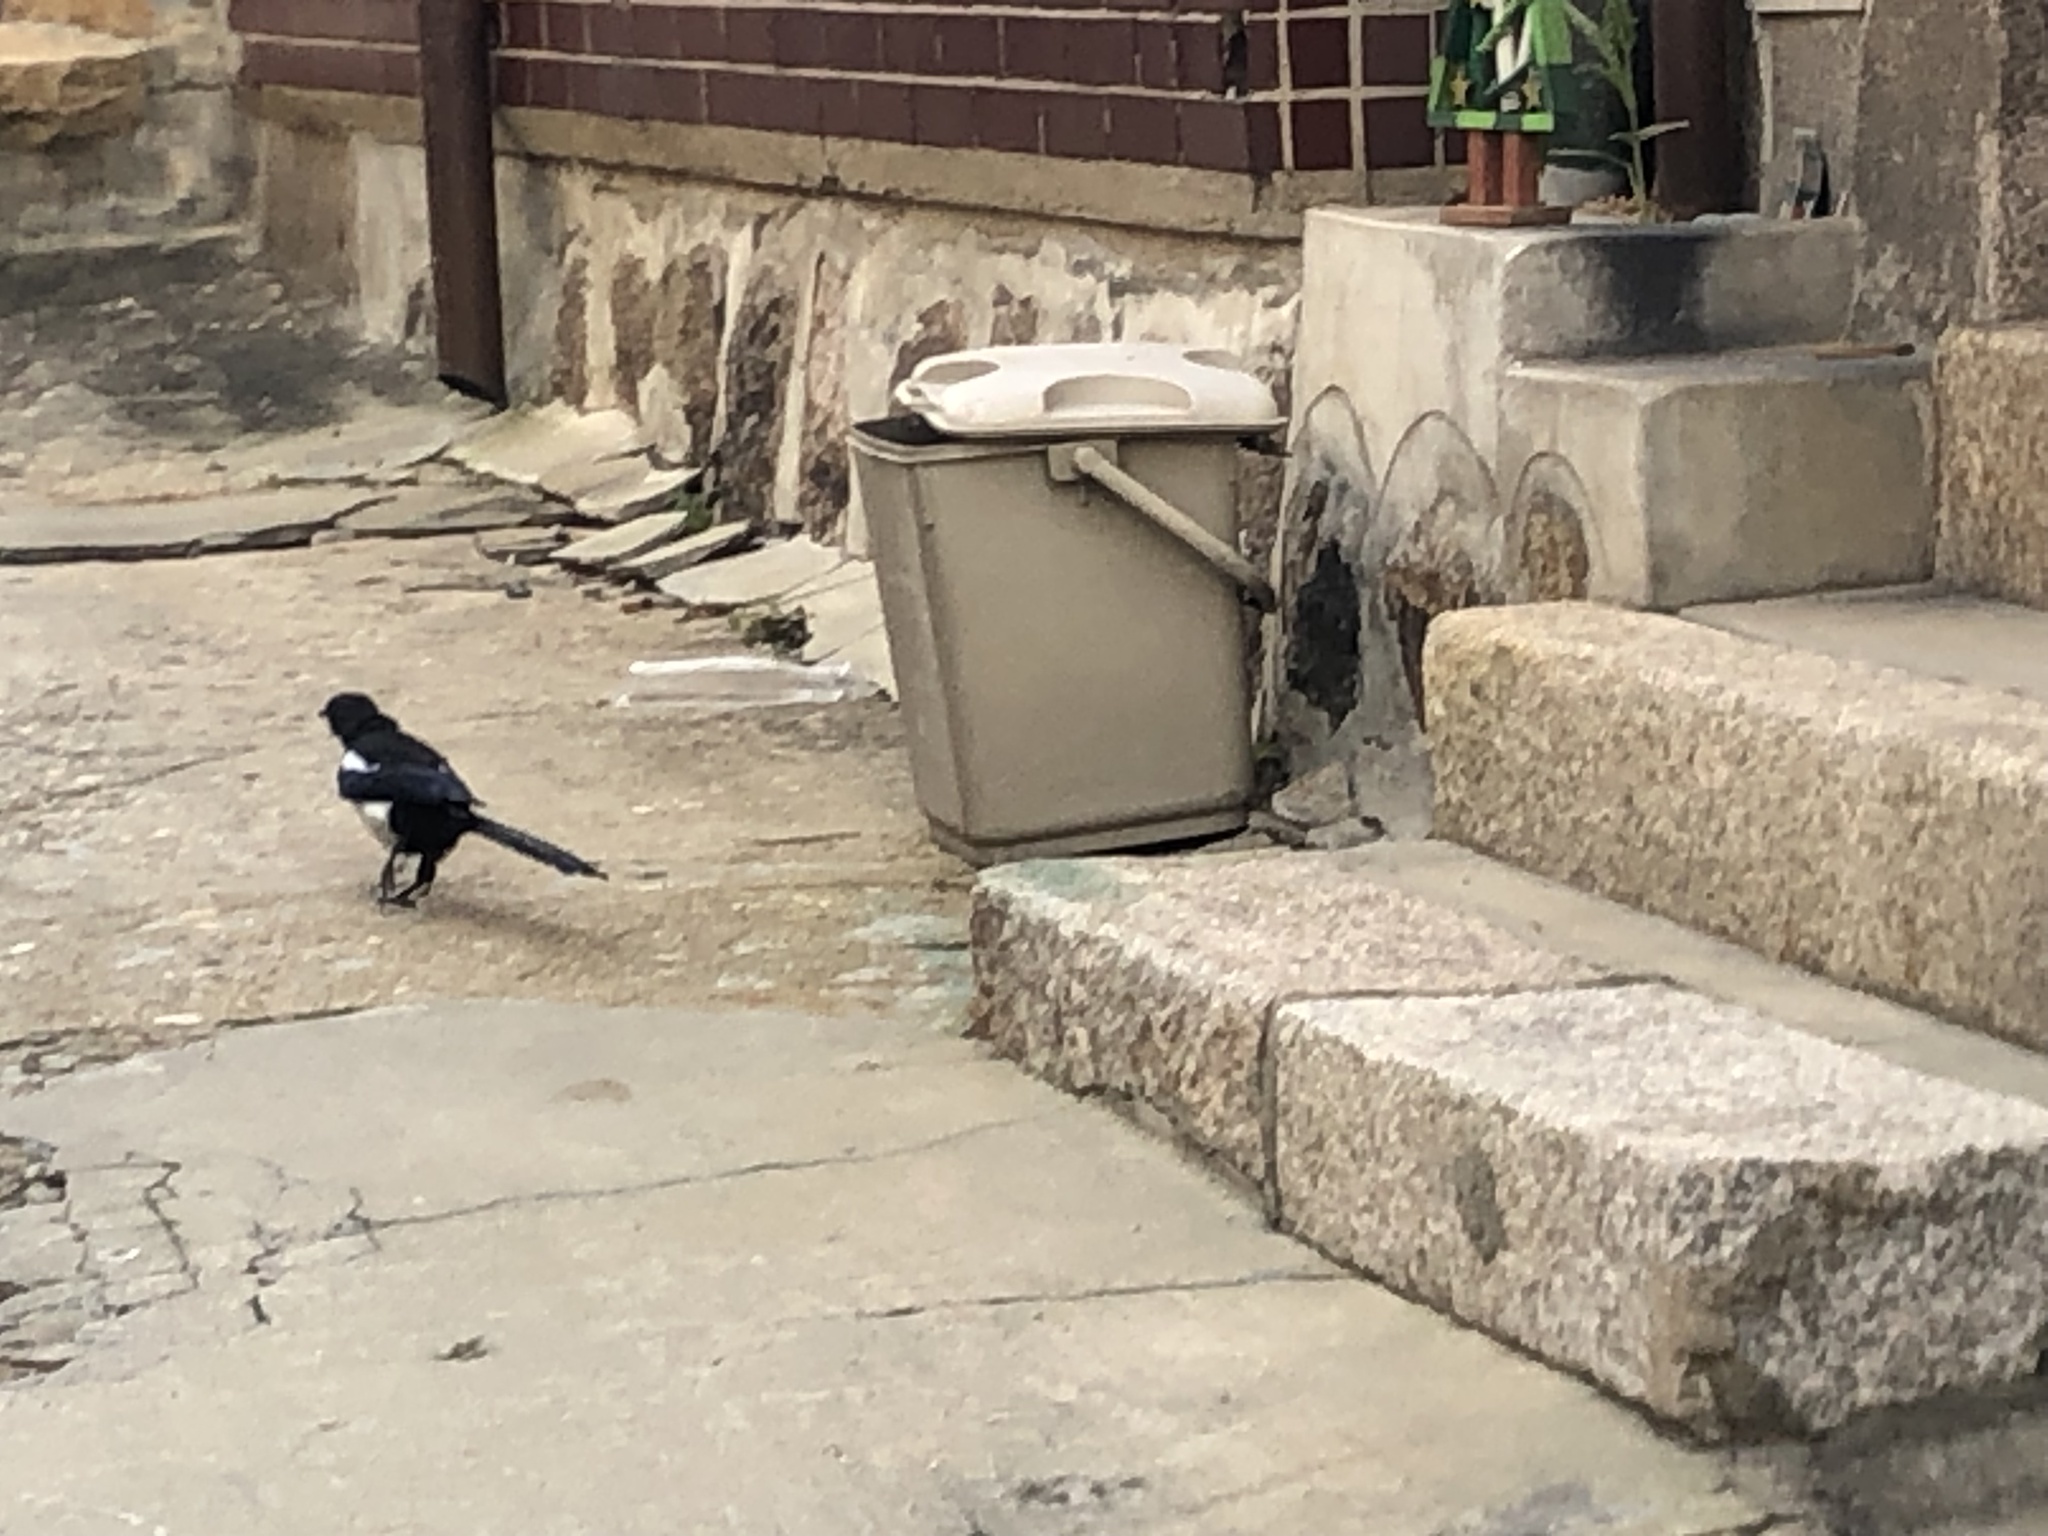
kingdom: Animalia
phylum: Chordata
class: Aves
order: Passeriformes
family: Corvidae
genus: Pica
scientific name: Pica serica
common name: Oriental magpie
